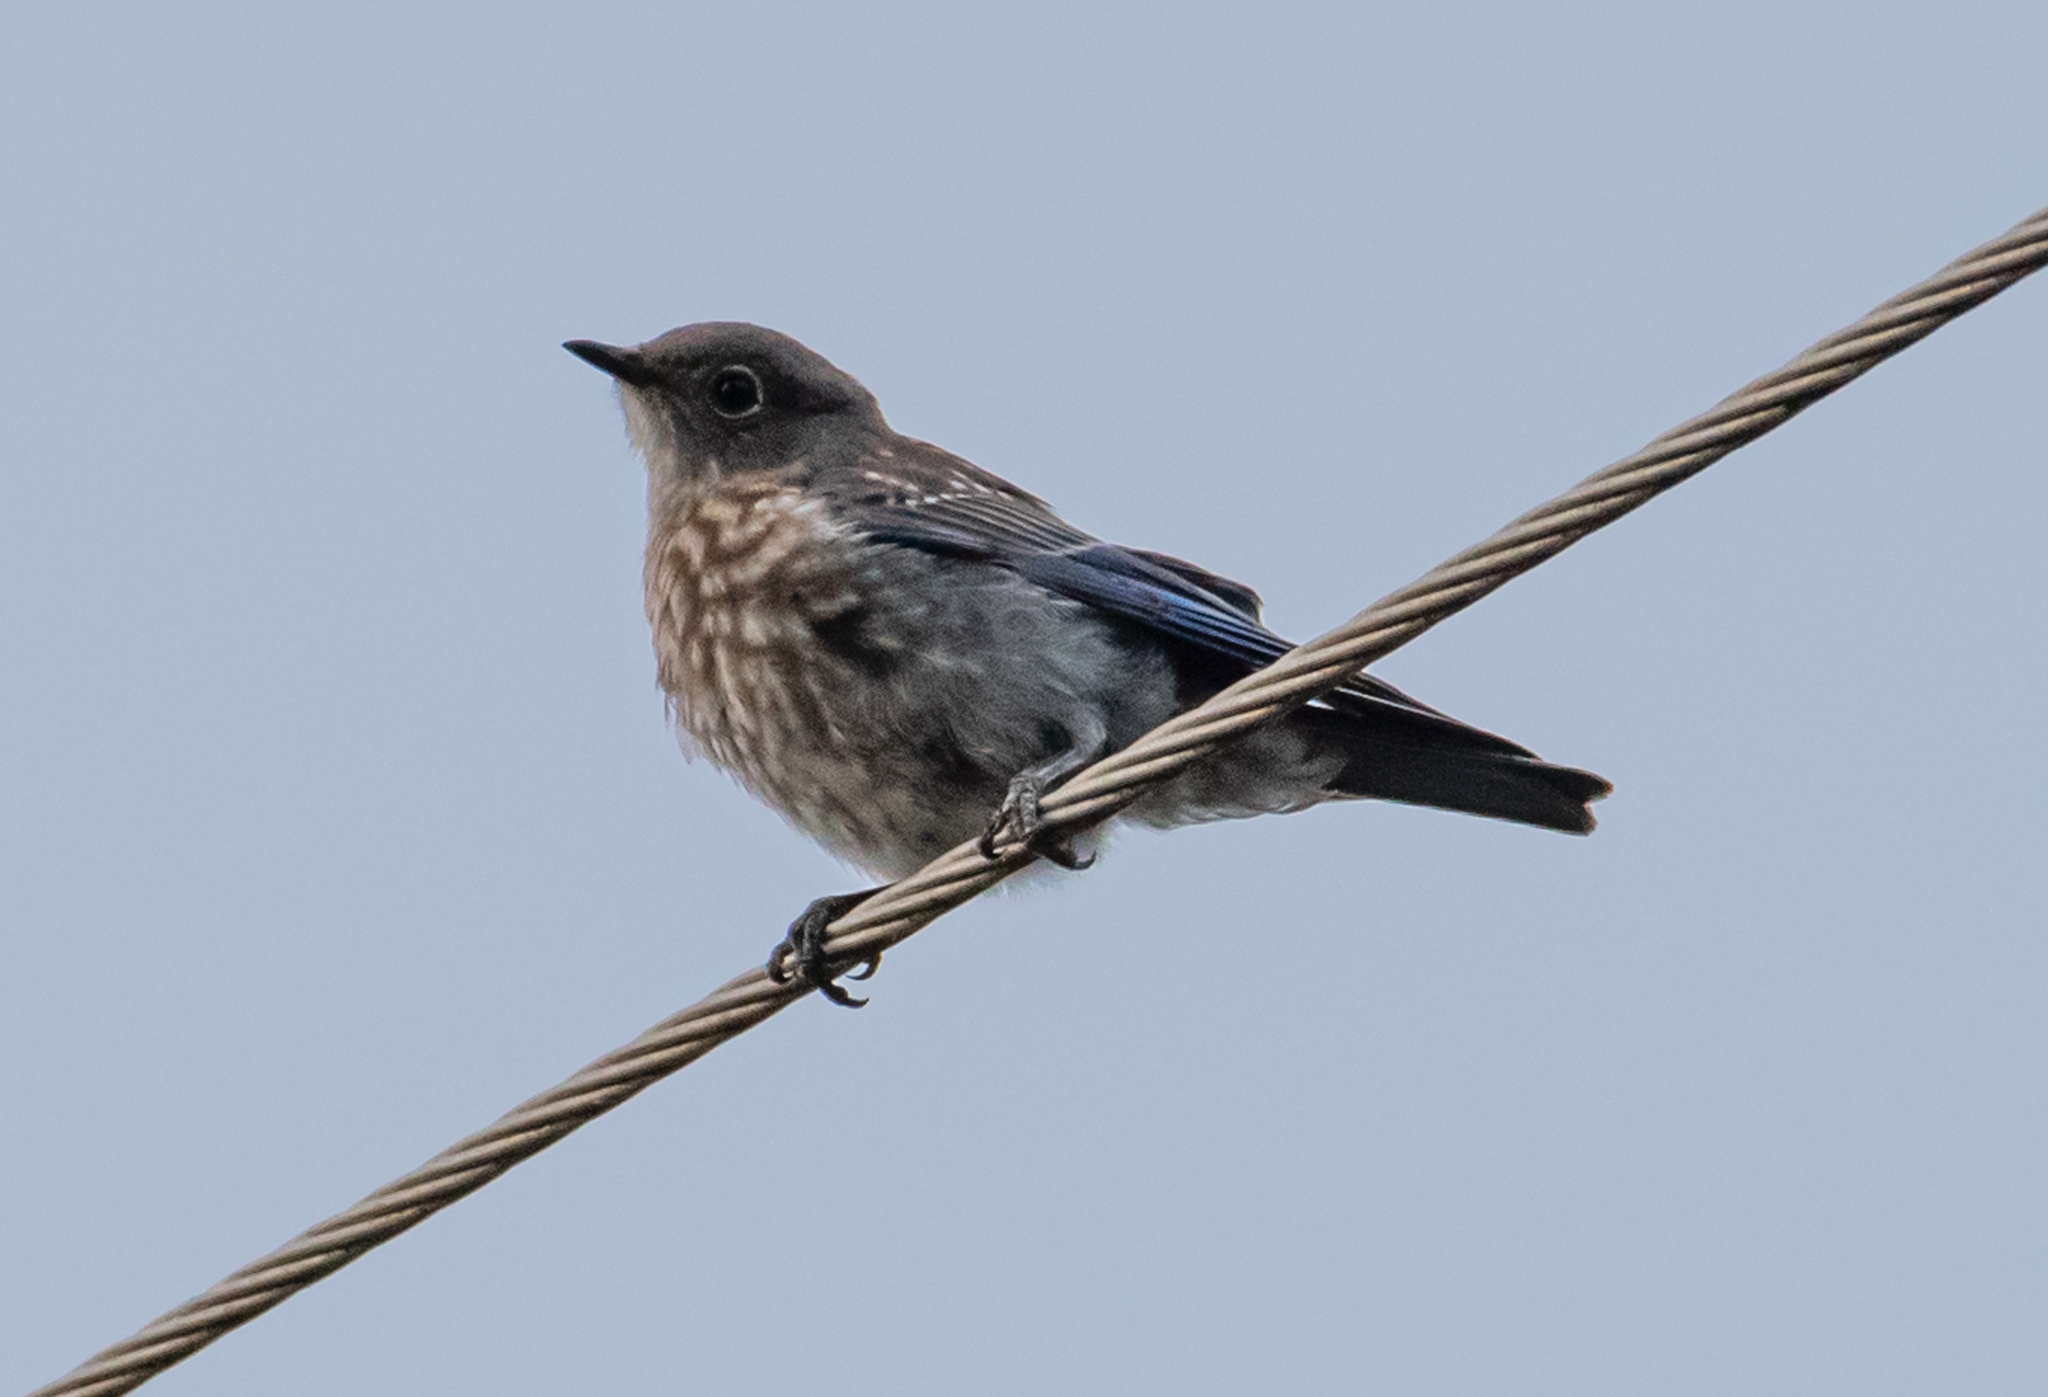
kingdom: Animalia
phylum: Chordata
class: Aves
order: Passeriformes
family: Turdidae
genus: Sialia
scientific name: Sialia mexicana
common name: Western bluebird
